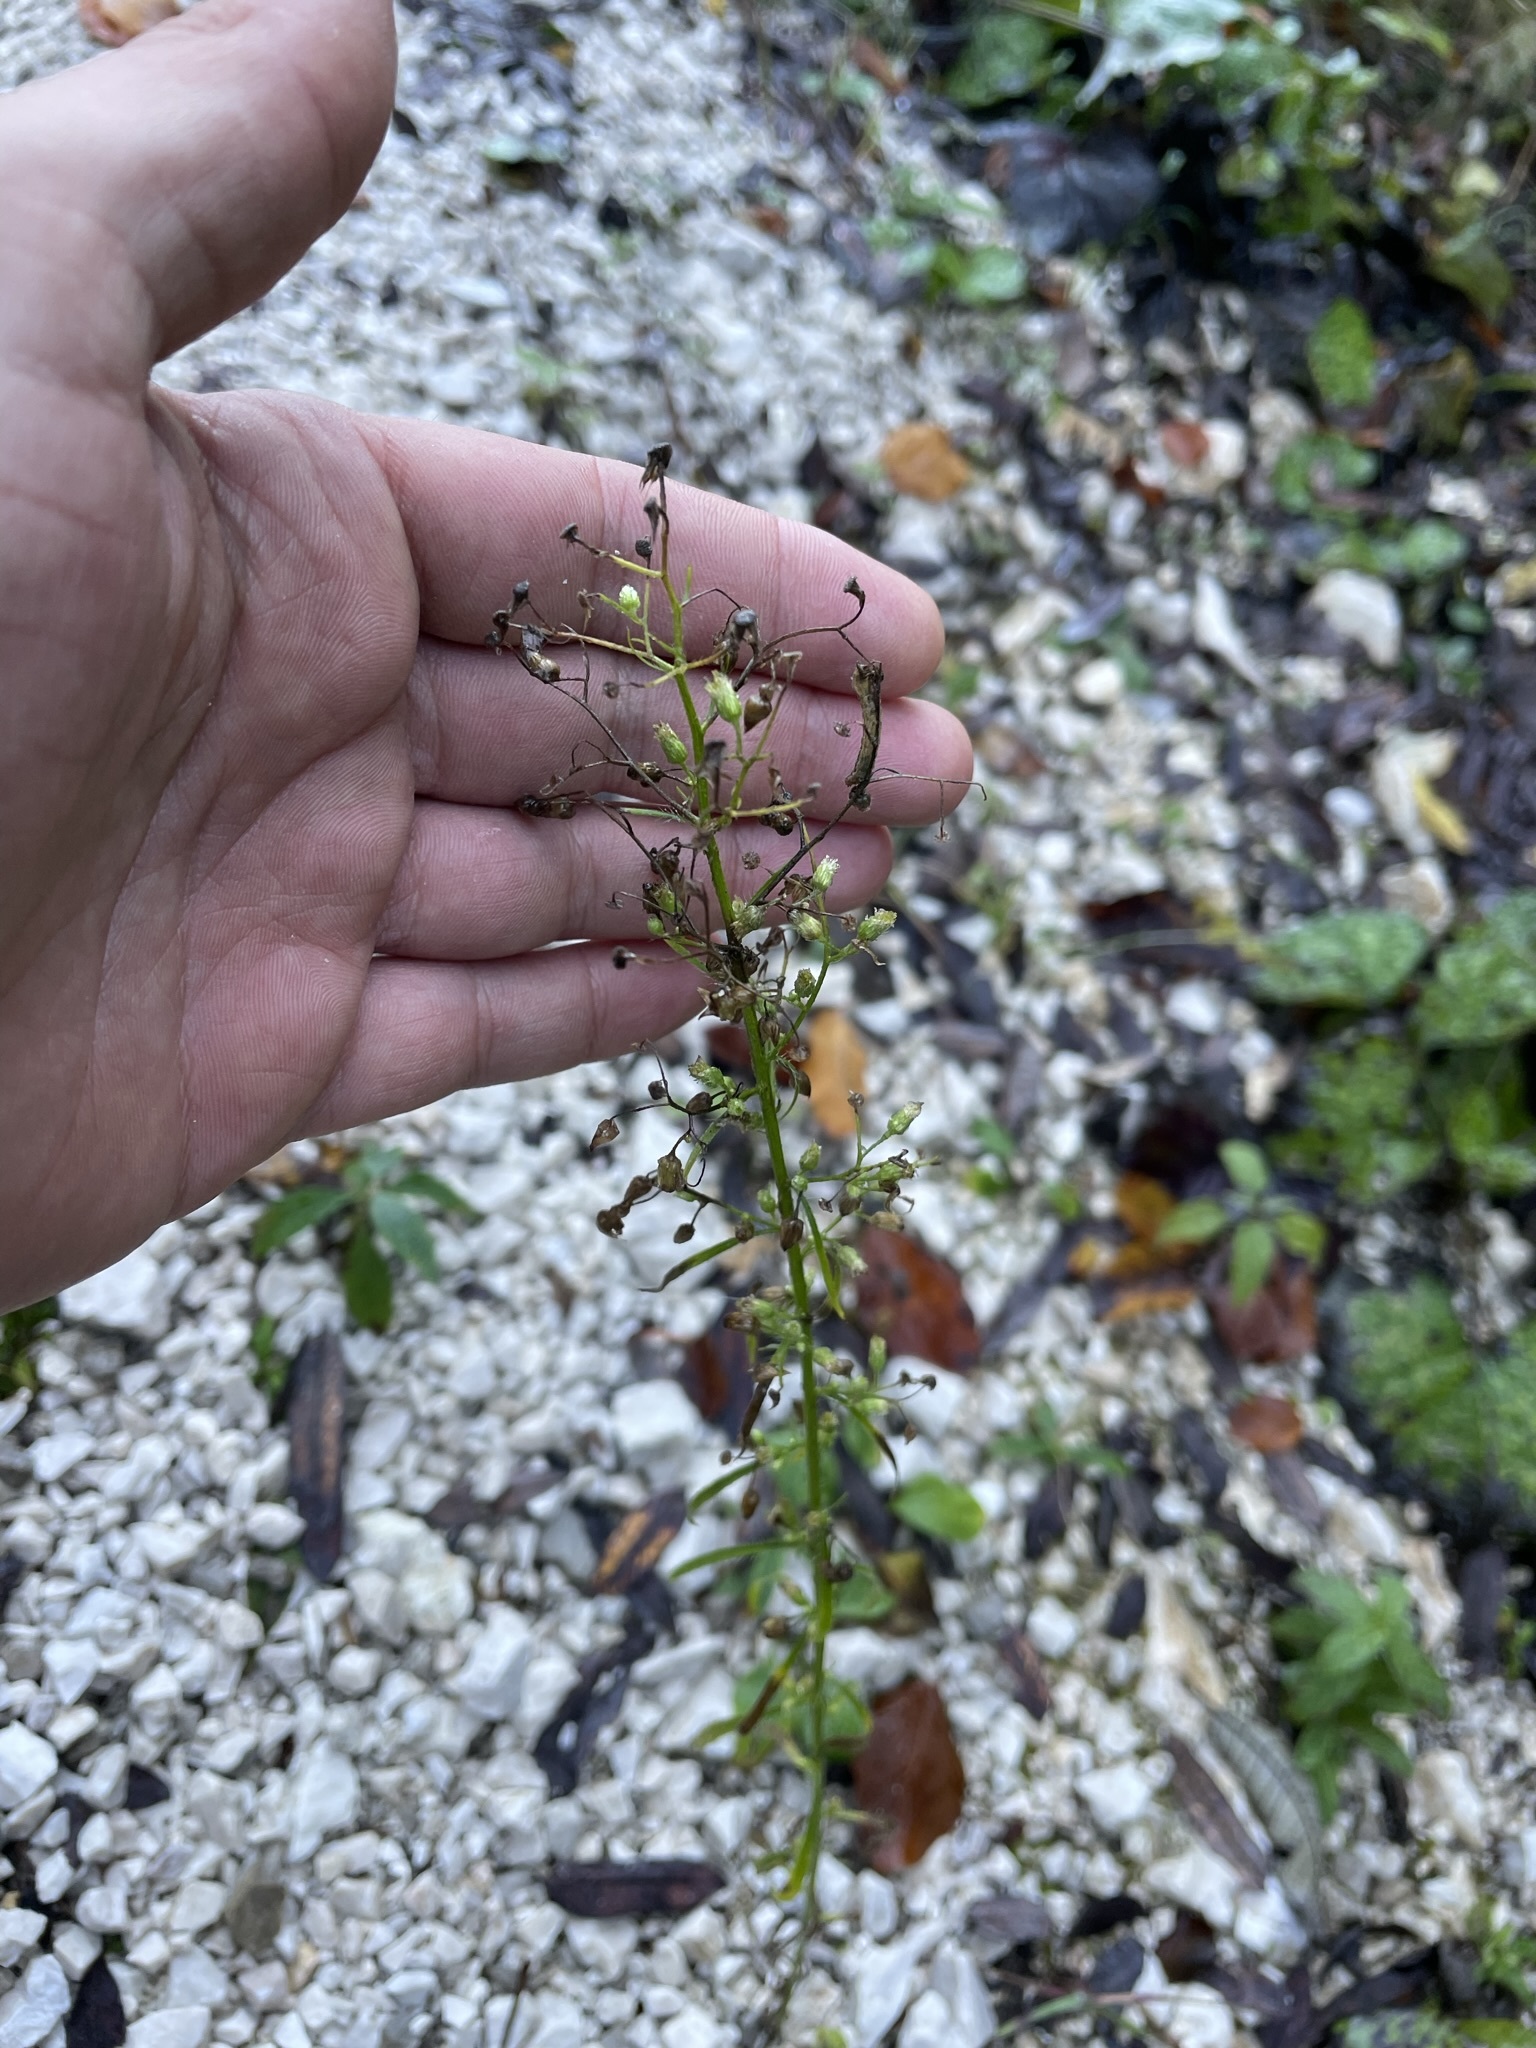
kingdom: Plantae
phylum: Tracheophyta
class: Magnoliopsida
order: Asterales
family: Asteraceae
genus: Erigeron
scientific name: Erigeron canadensis
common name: Canadian fleabane
